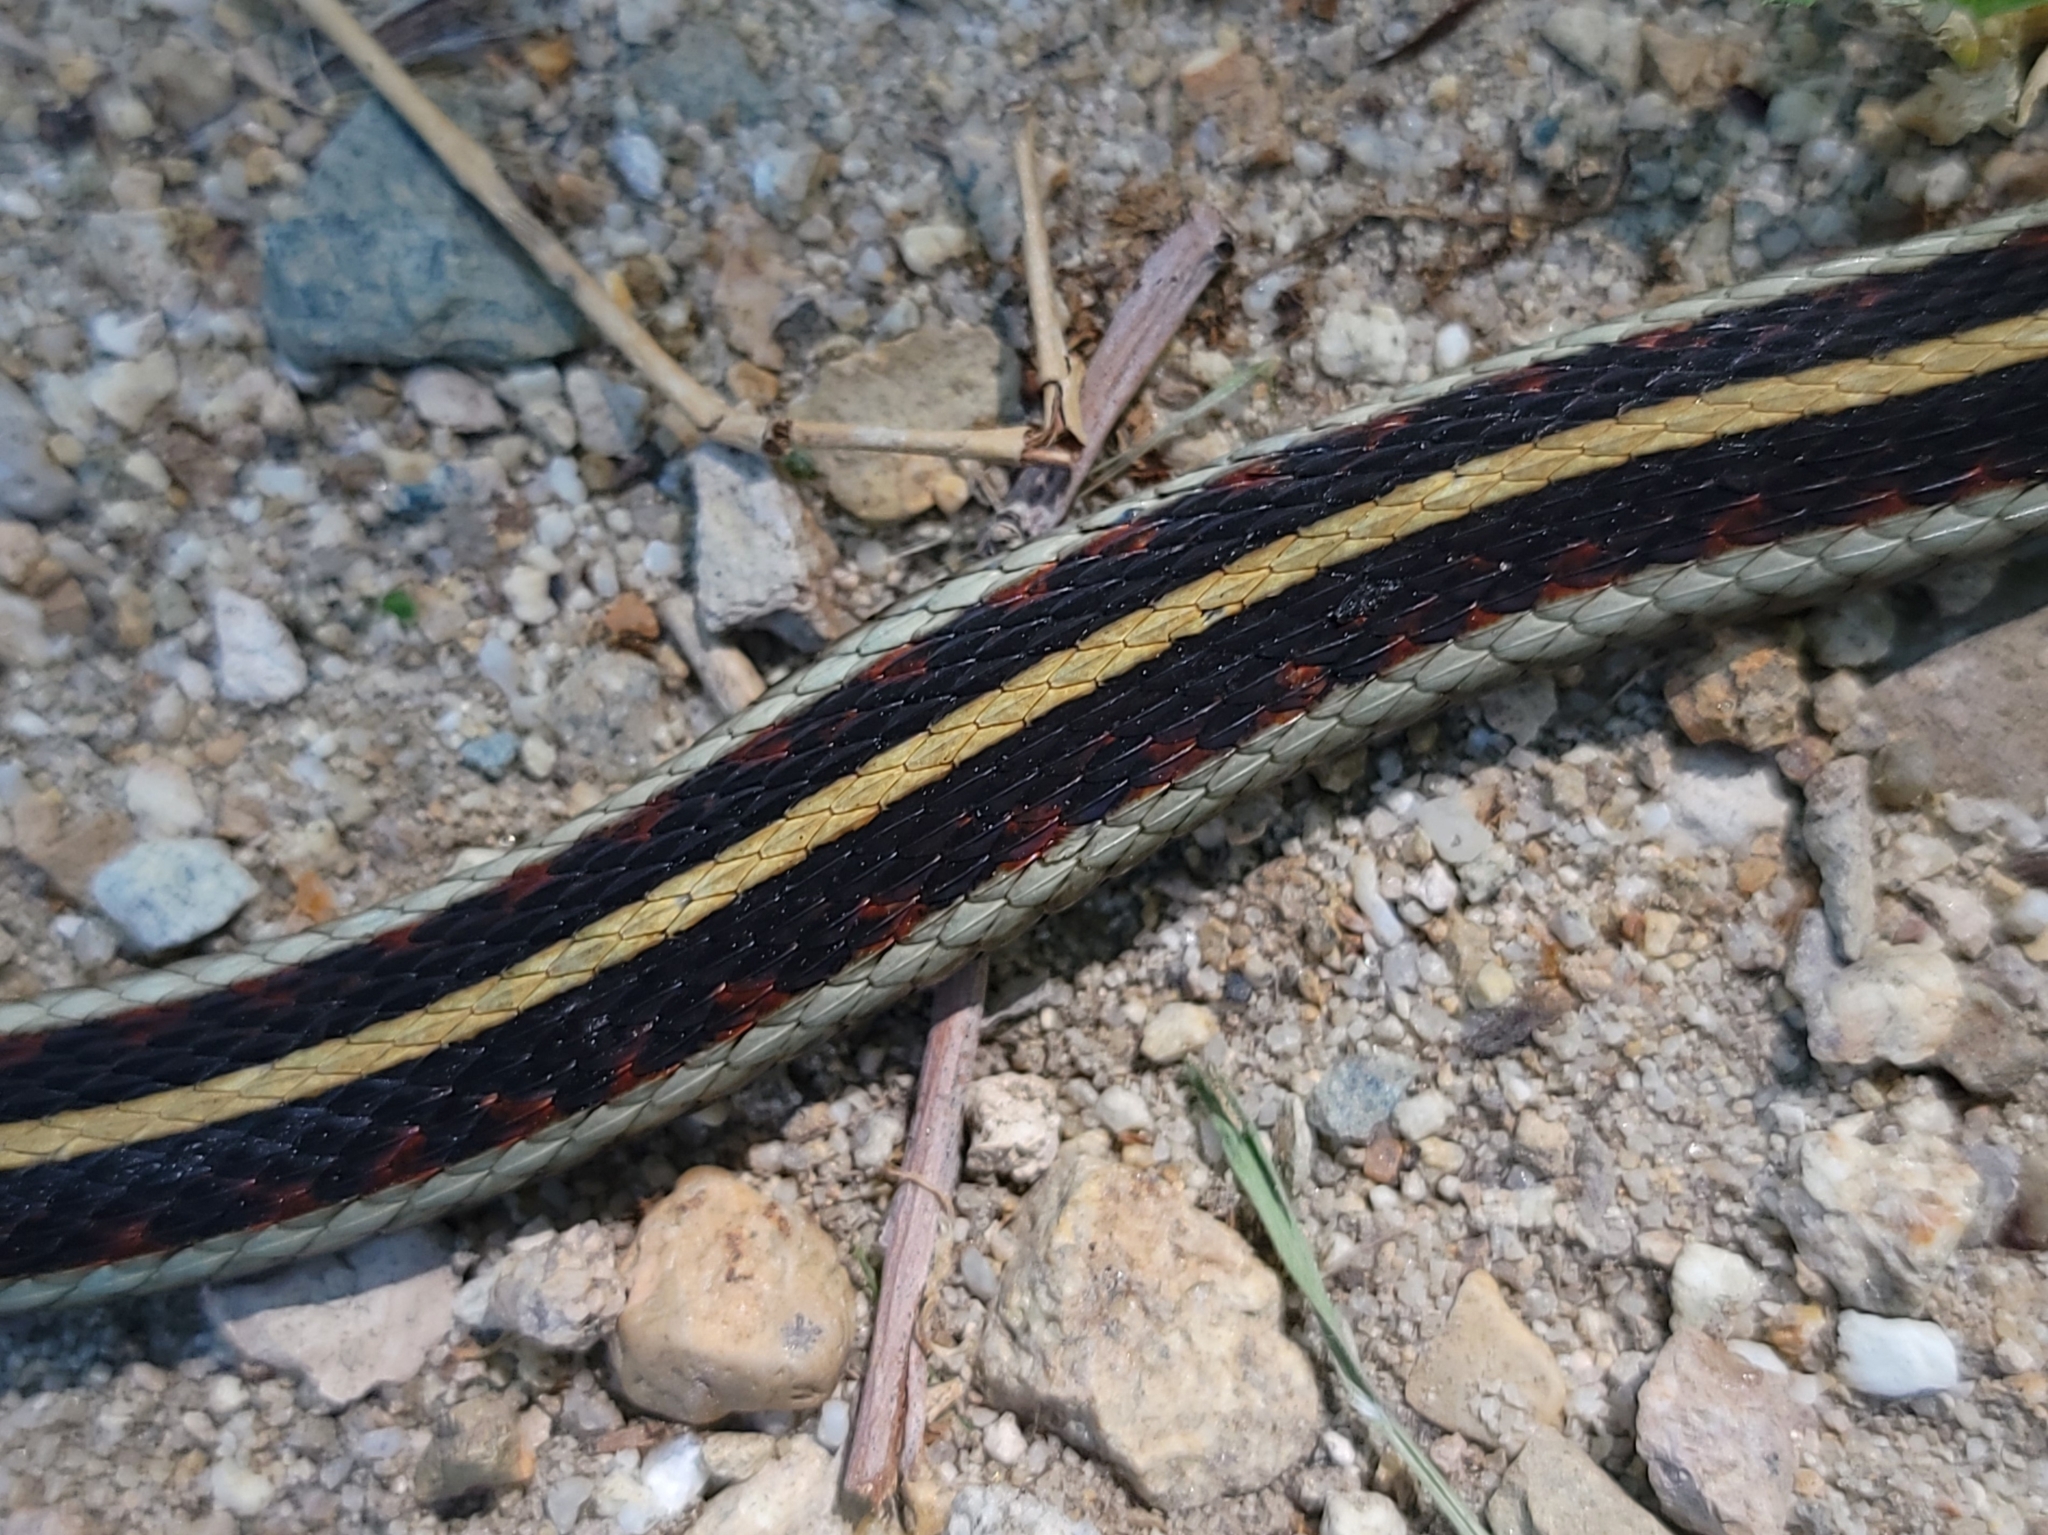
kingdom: Animalia
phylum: Chordata
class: Squamata
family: Colubridae
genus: Thamnophis
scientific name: Thamnophis sirtalis
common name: Common garter snake
